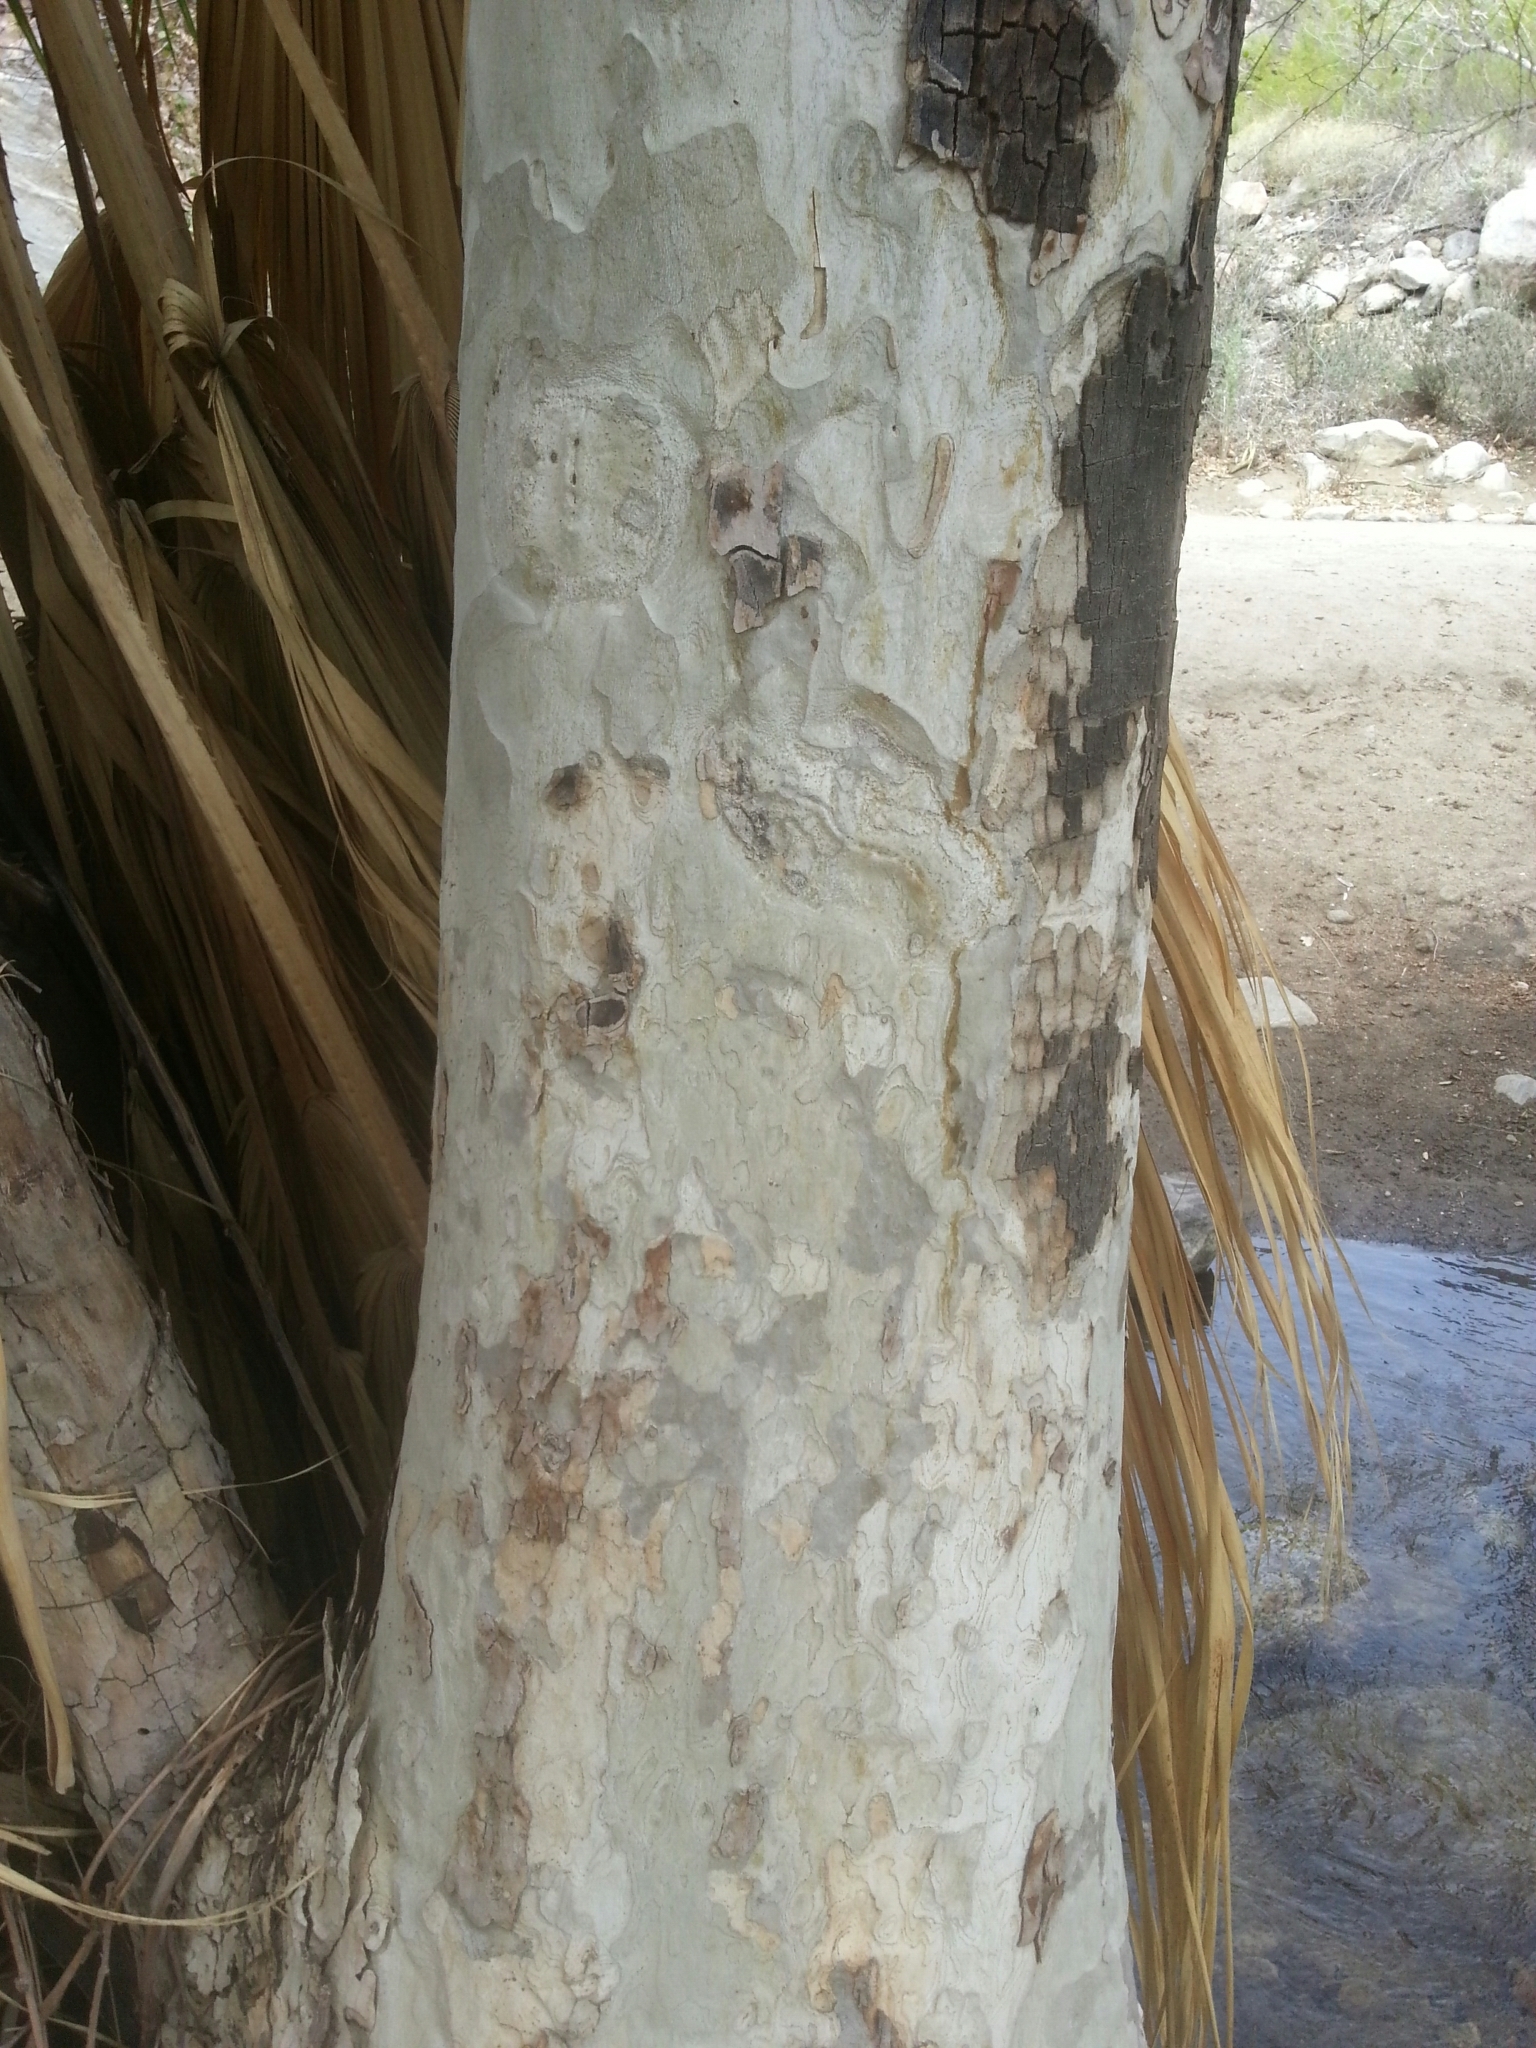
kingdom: Plantae
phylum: Tracheophyta
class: Magnoliopsida
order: Proteales
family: Platanaceae
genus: Platanus
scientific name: Platanus racemosa
